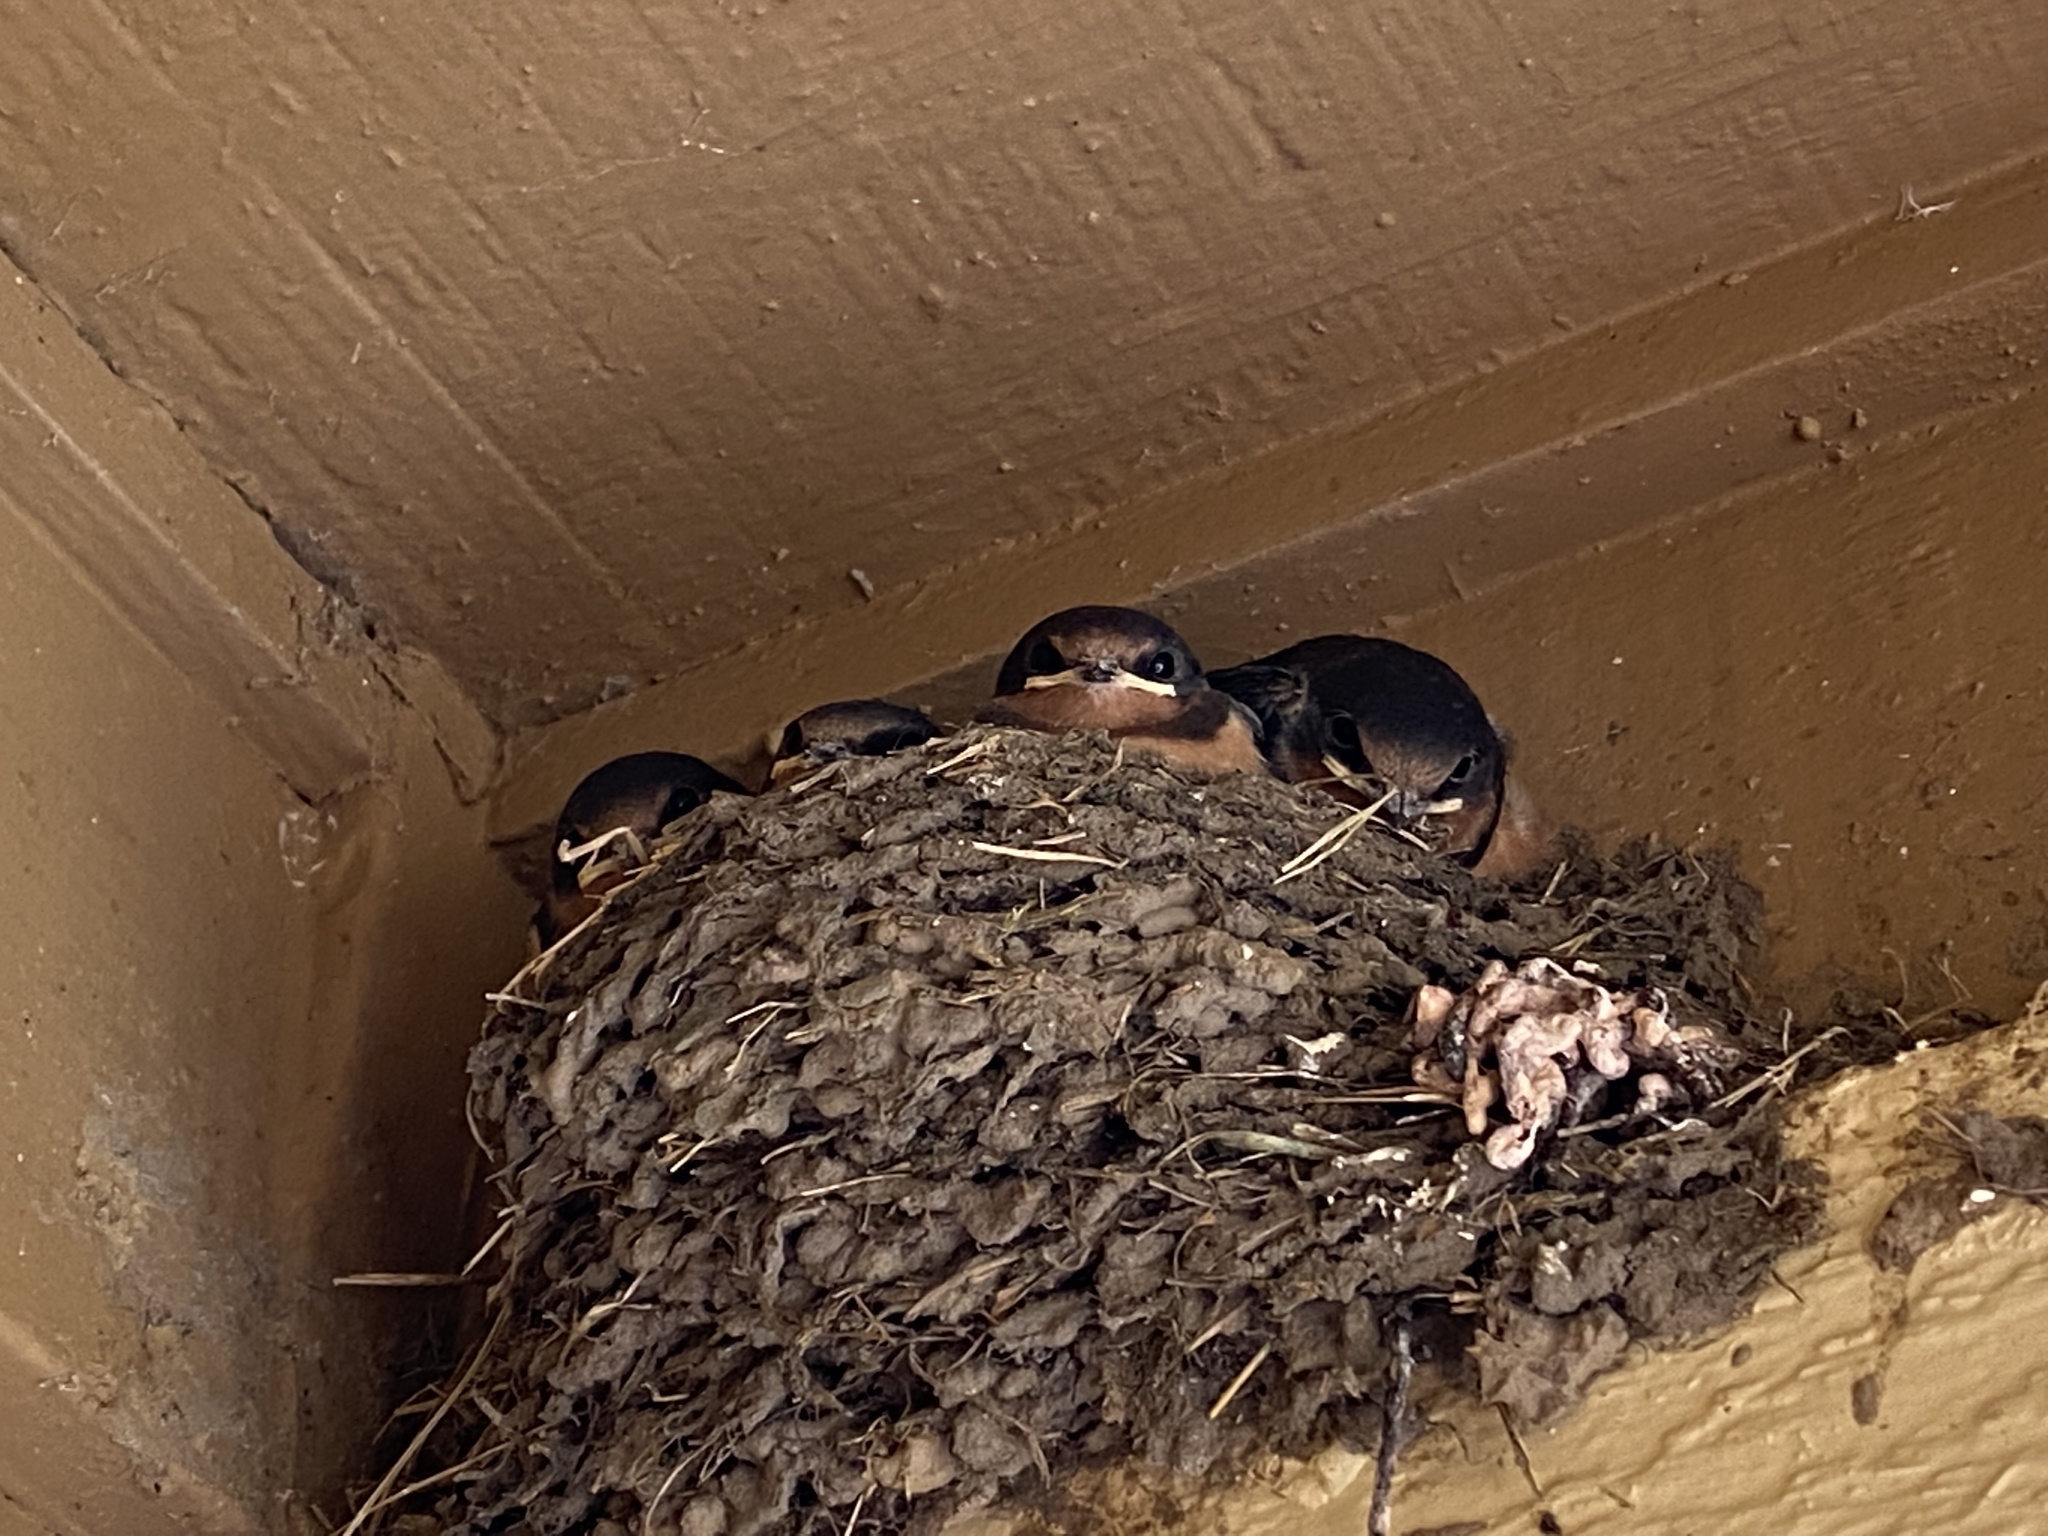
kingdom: Animalia
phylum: Chordata
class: Aves
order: Passeriformes
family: Hirundinidae
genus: Hirundo
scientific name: Hirundo rustica
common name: Barn swallow
